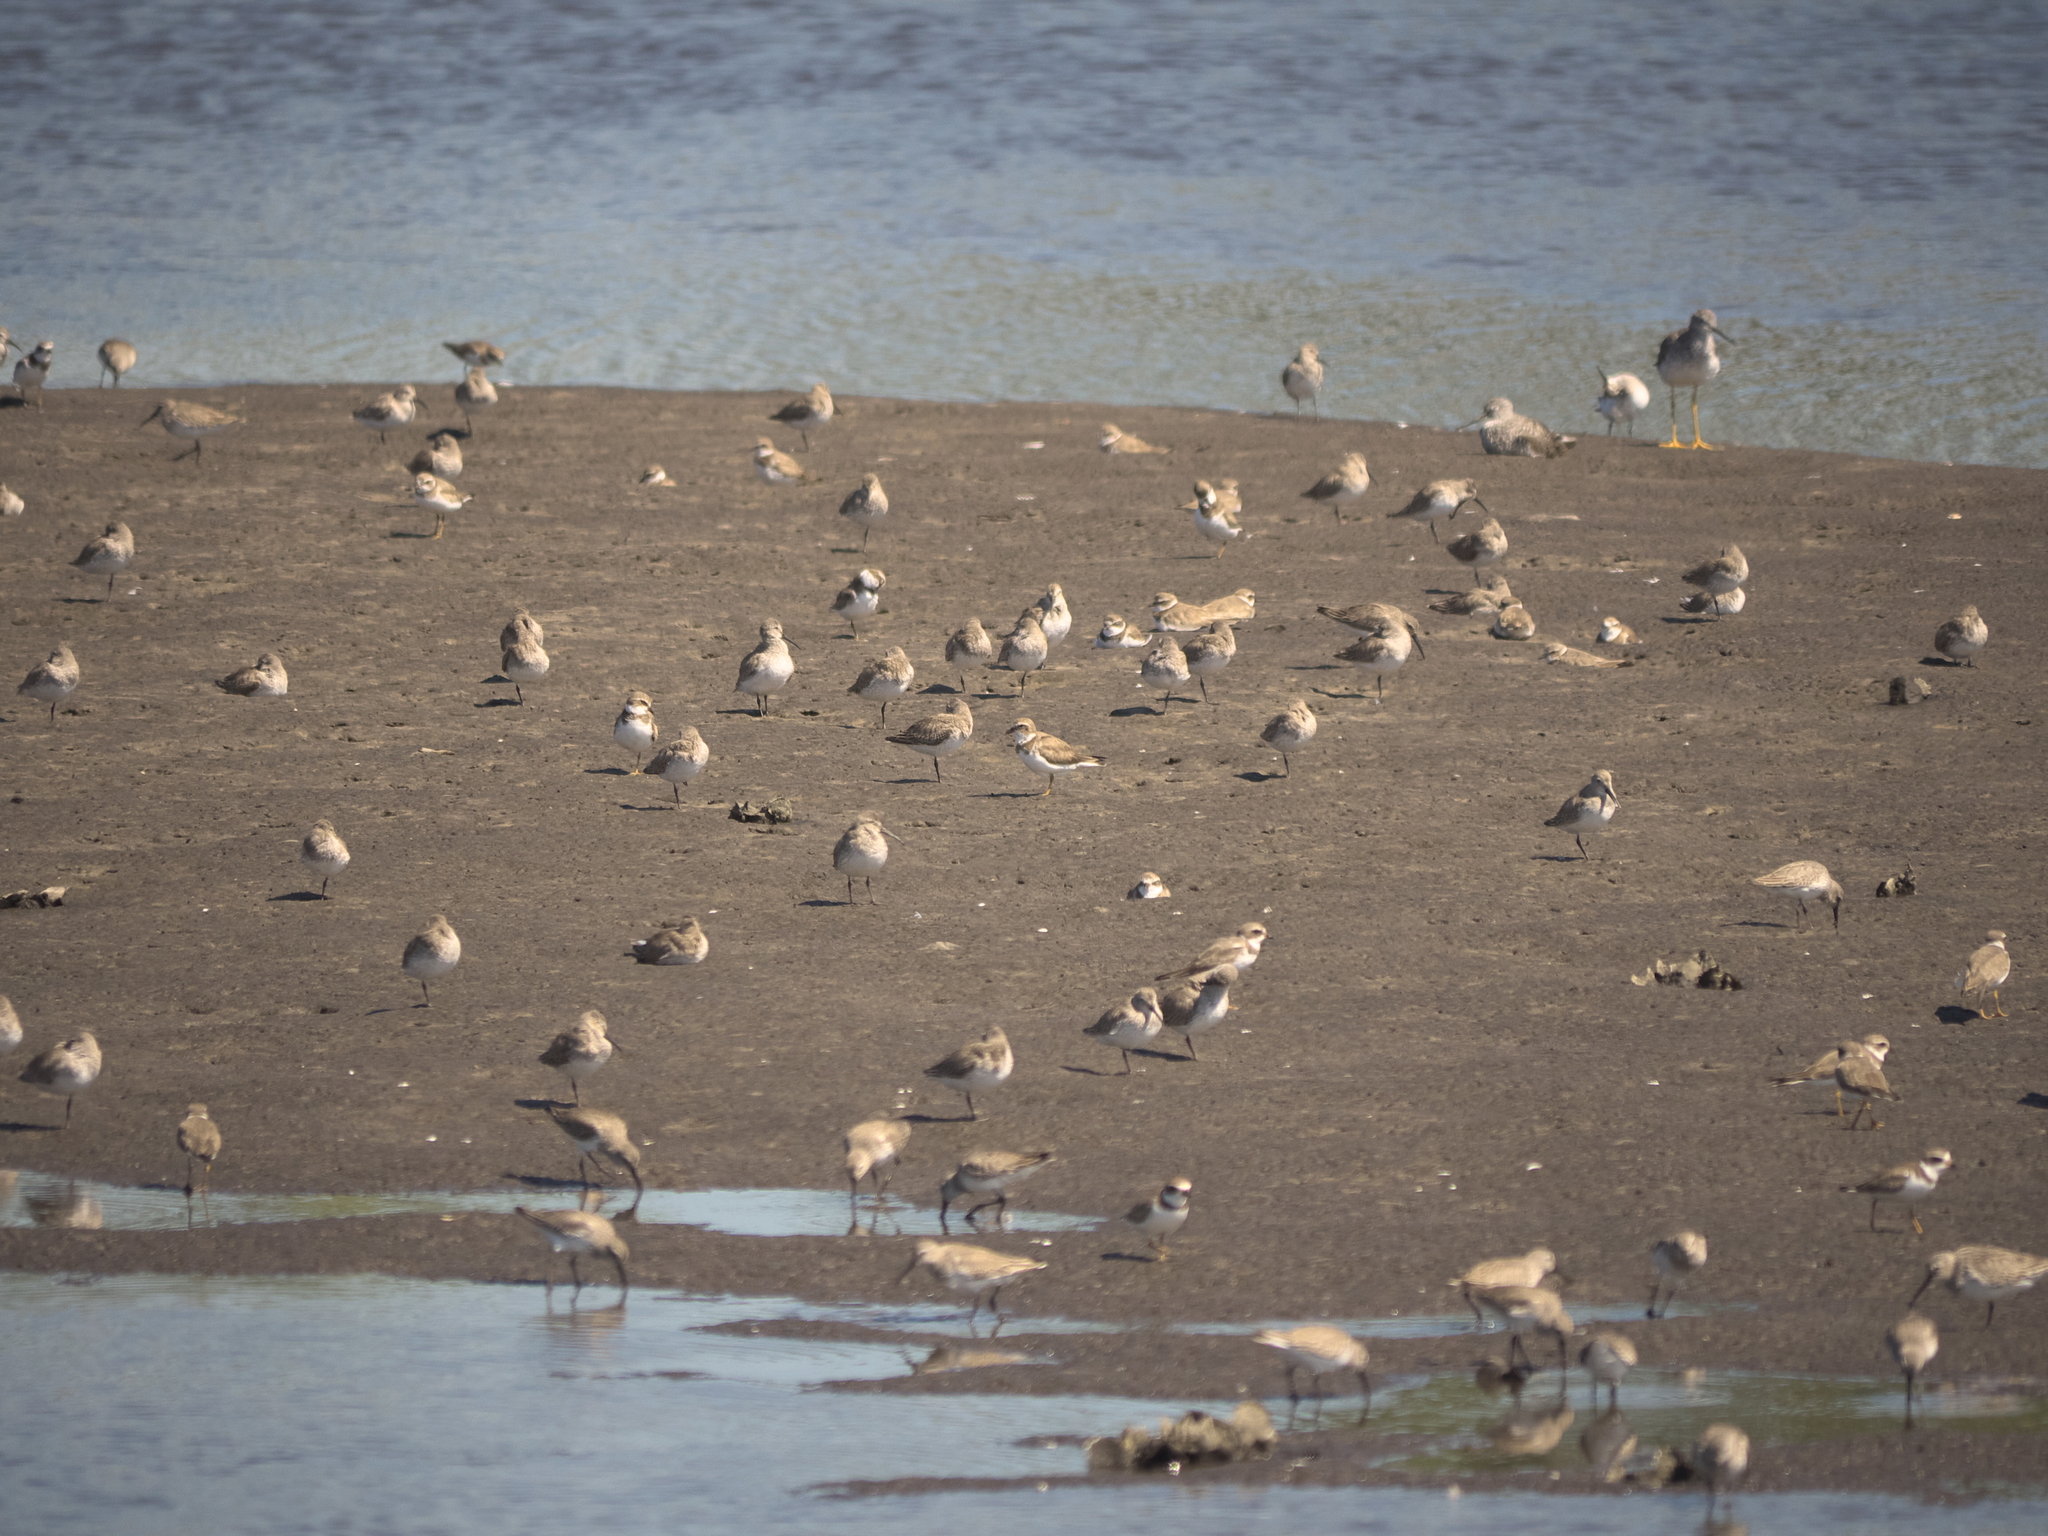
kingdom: Animalia
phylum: Chordata
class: Aves
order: Charadriiformes
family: Charadriidae
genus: Charadrius
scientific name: Charadrius semipalmatus
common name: Semipalmated plover
